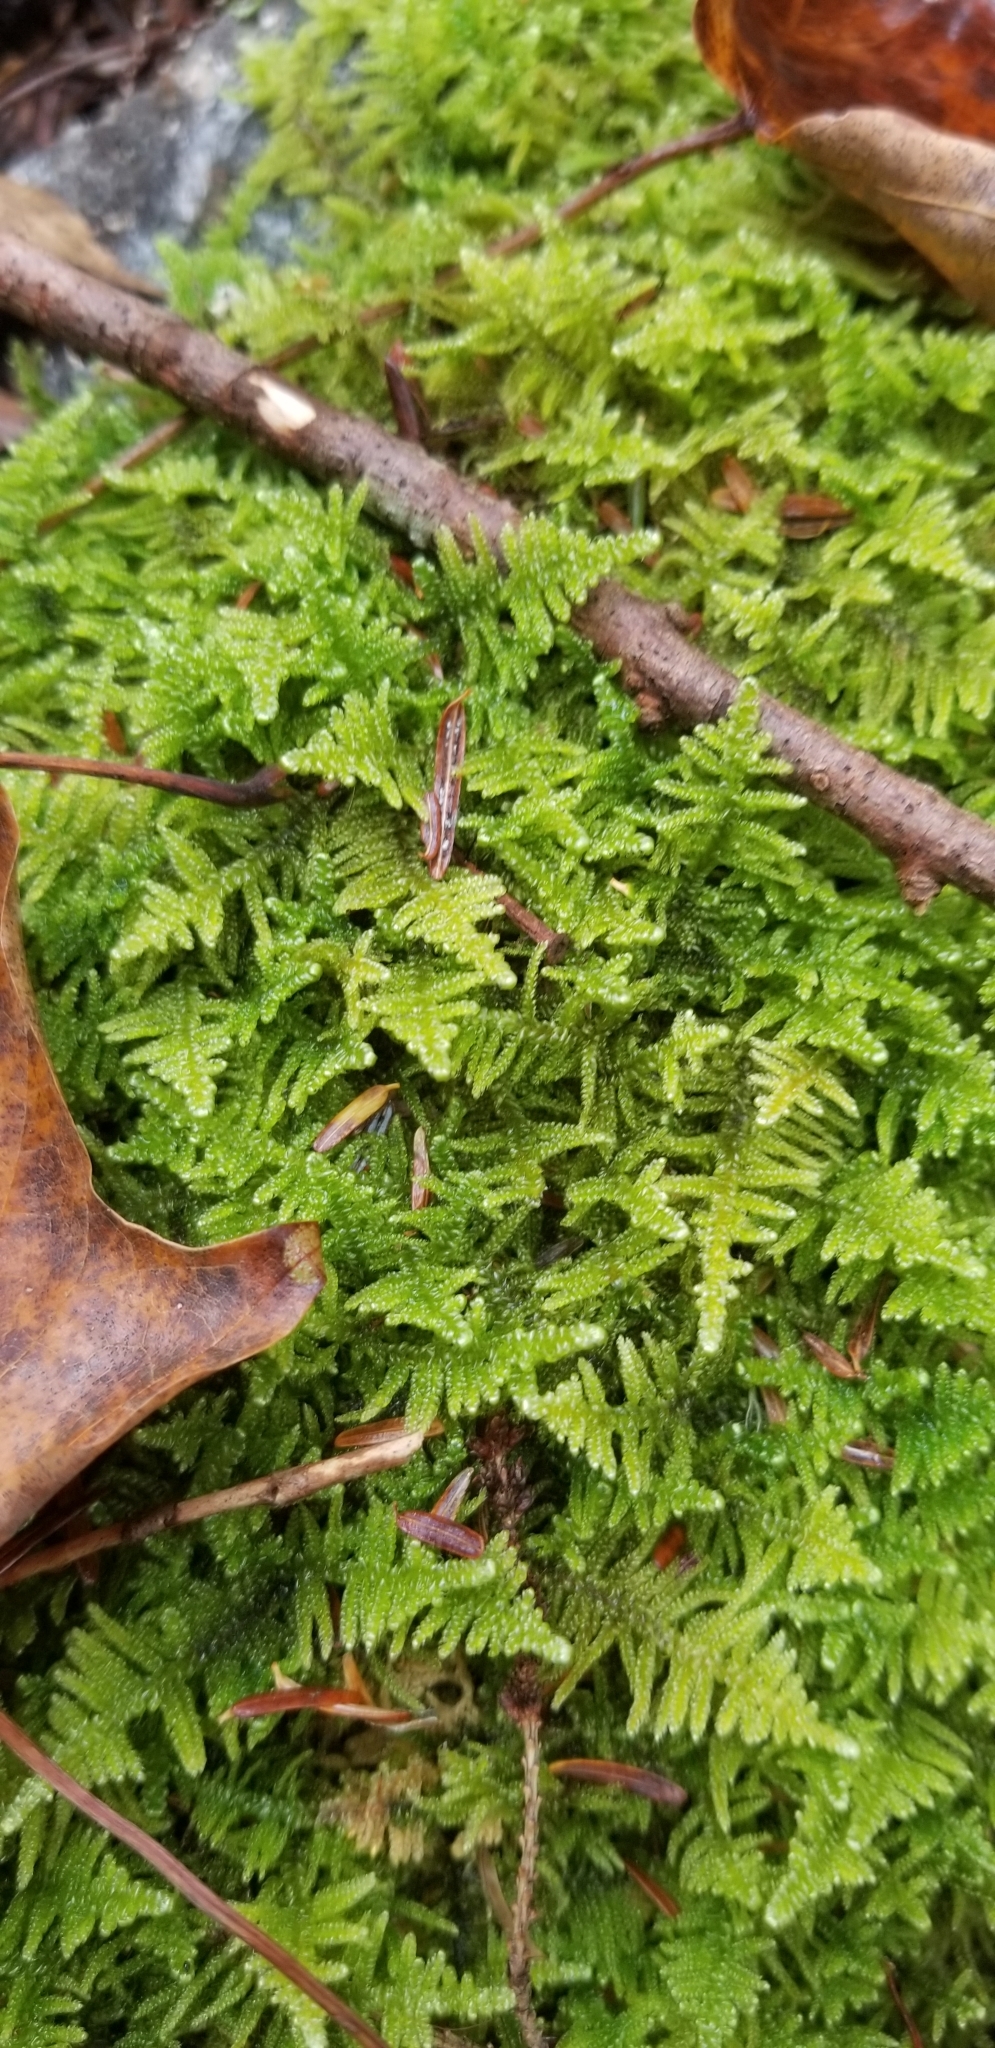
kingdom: Plantae
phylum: Bryophyta
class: Bryopsida
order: Hypnales
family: Callicladiaceae
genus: Callicladium
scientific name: Callicladium imponens
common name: Brocade moss
